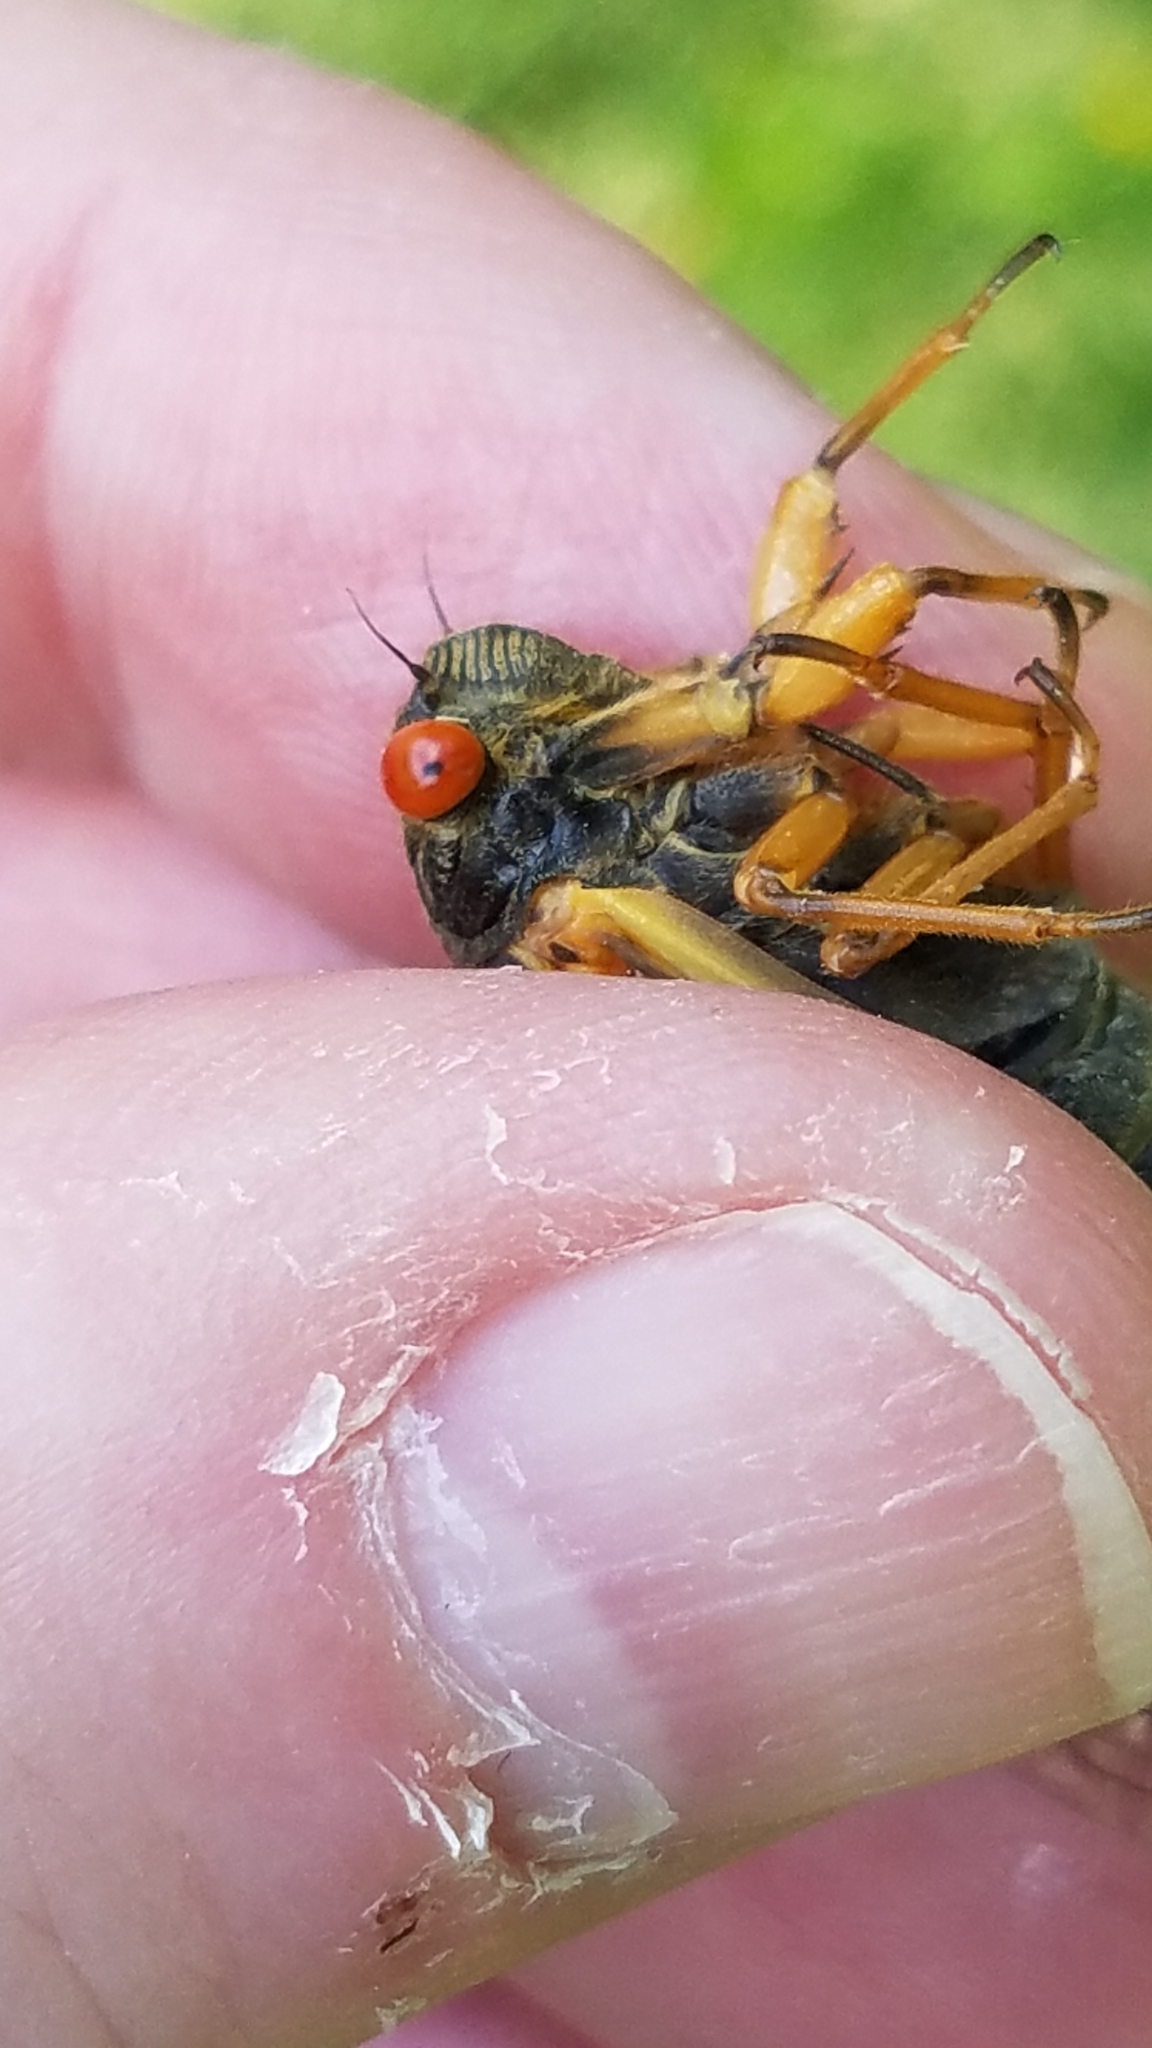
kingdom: Animalia
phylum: Arthropoda
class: Insecta
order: Hemiptera
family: Cicadidae
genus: Magicicada
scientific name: Magicicada cassini
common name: Cassin's 17-year cicada
